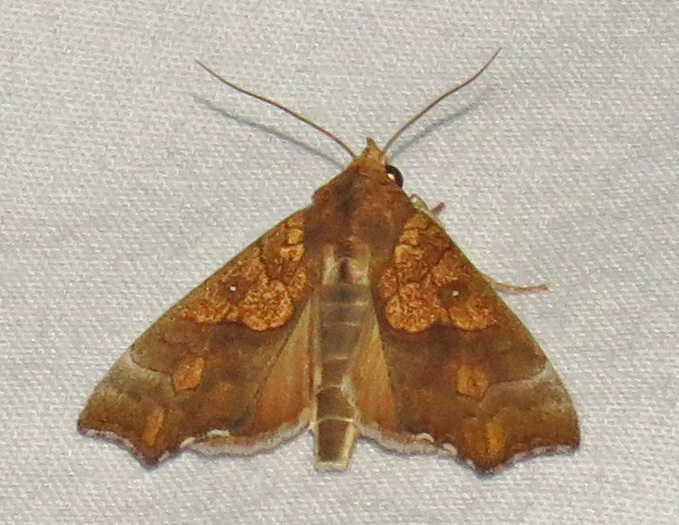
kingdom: Animalia
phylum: Arthropoda
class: Insecta
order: Lepidoptera
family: Erebidae
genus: Anomis
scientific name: Anomis erosa
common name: Yellow scallop moth
